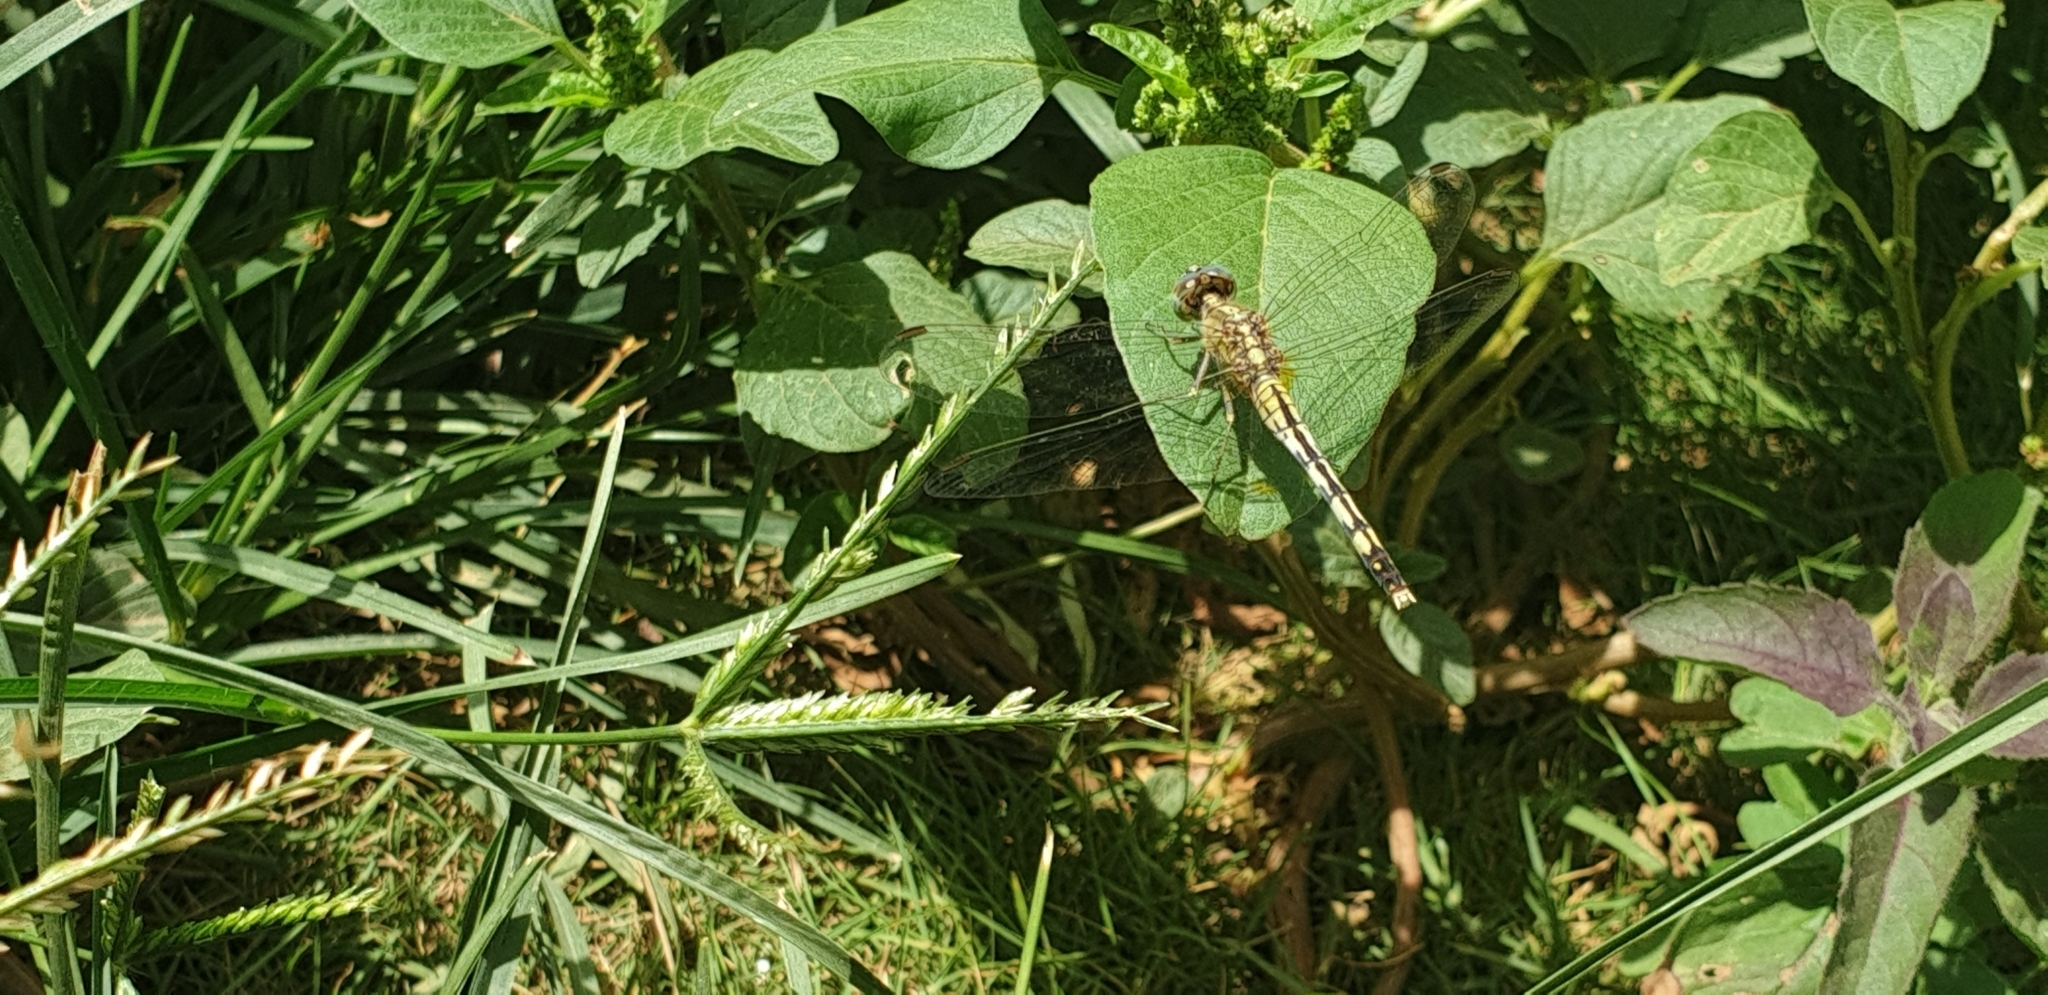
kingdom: Animalia
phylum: Arthropoda
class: Insecta
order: Odonata
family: Libellulidae
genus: Diplacodes
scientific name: Diplacodes trivialis
